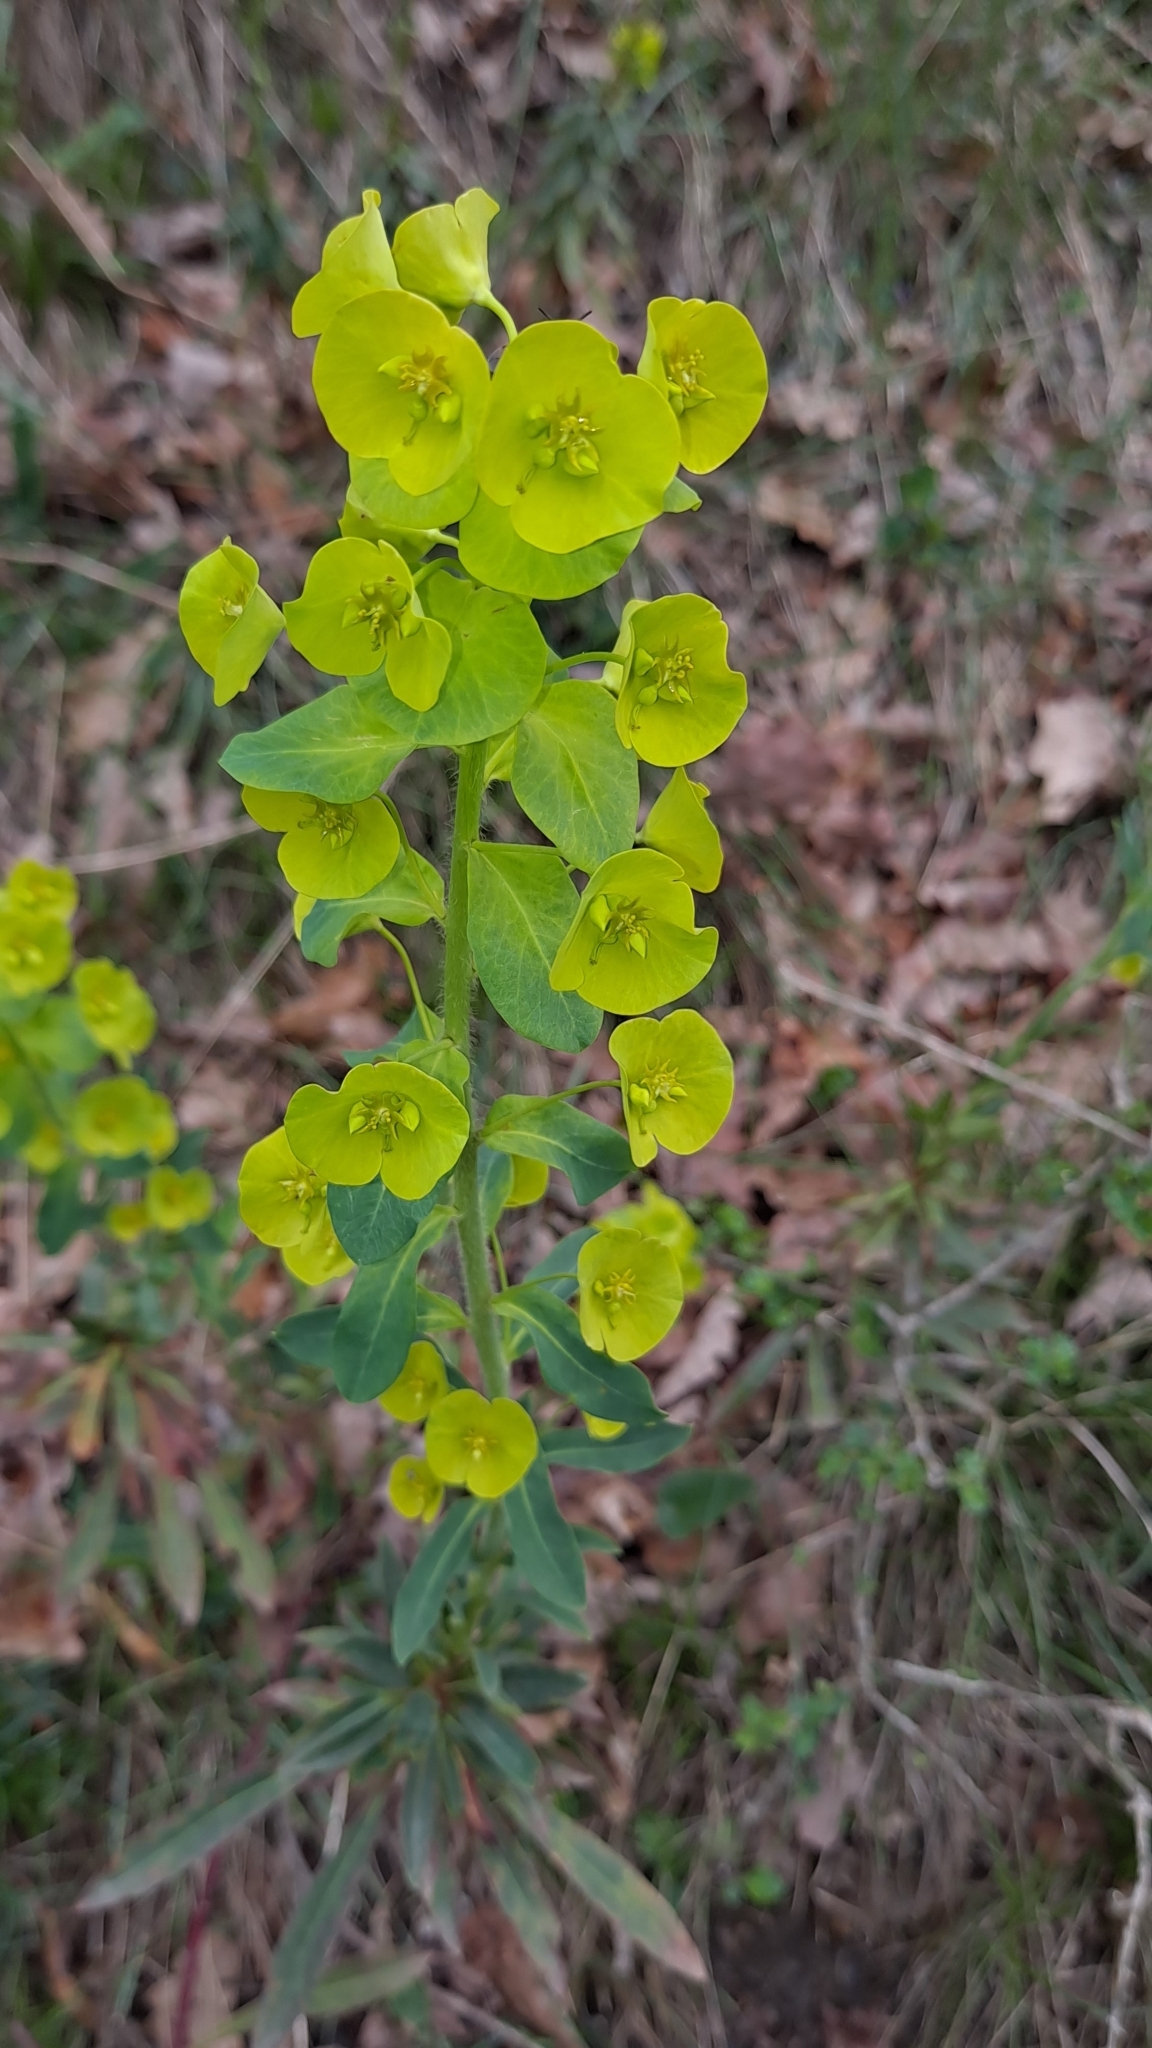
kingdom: Plantae
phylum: Tracheophyta
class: Magnoliopsida
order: Malpighiales
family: Euphorbiaceae
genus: Euphorbia
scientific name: Euphorbia amygdaloides
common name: Wood spurge
